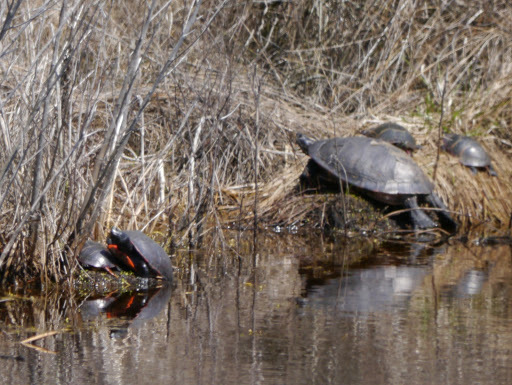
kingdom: Animalia
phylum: Chordata
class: Testudines
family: Emydidae
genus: Chrysemys
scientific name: Chrysemys picta
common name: Painted turtle
